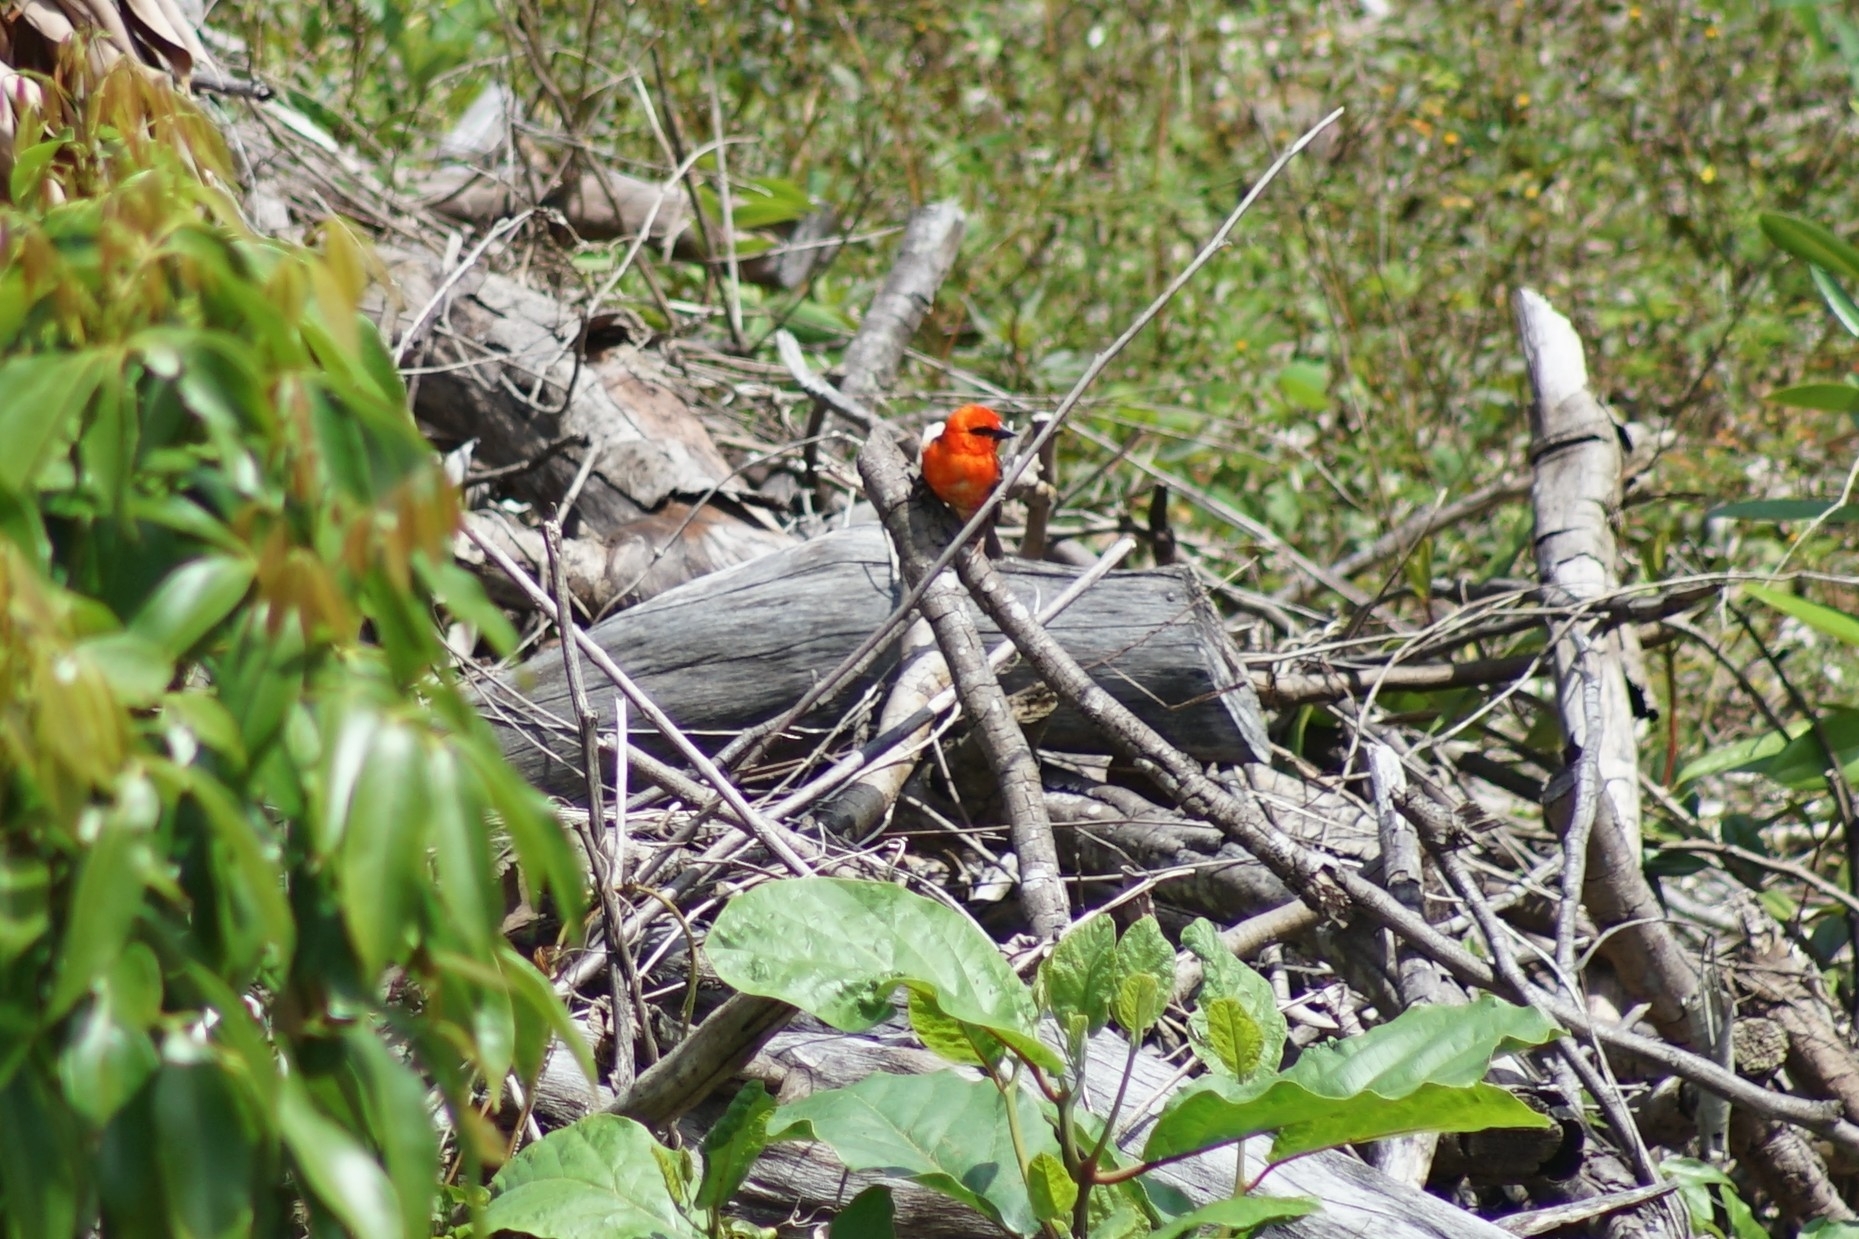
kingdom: Animalia
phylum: Chordata
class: Aves
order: Passeriformes
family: Ploceidae
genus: Foudia
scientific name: Foudia madagascariensis
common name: Red fody
